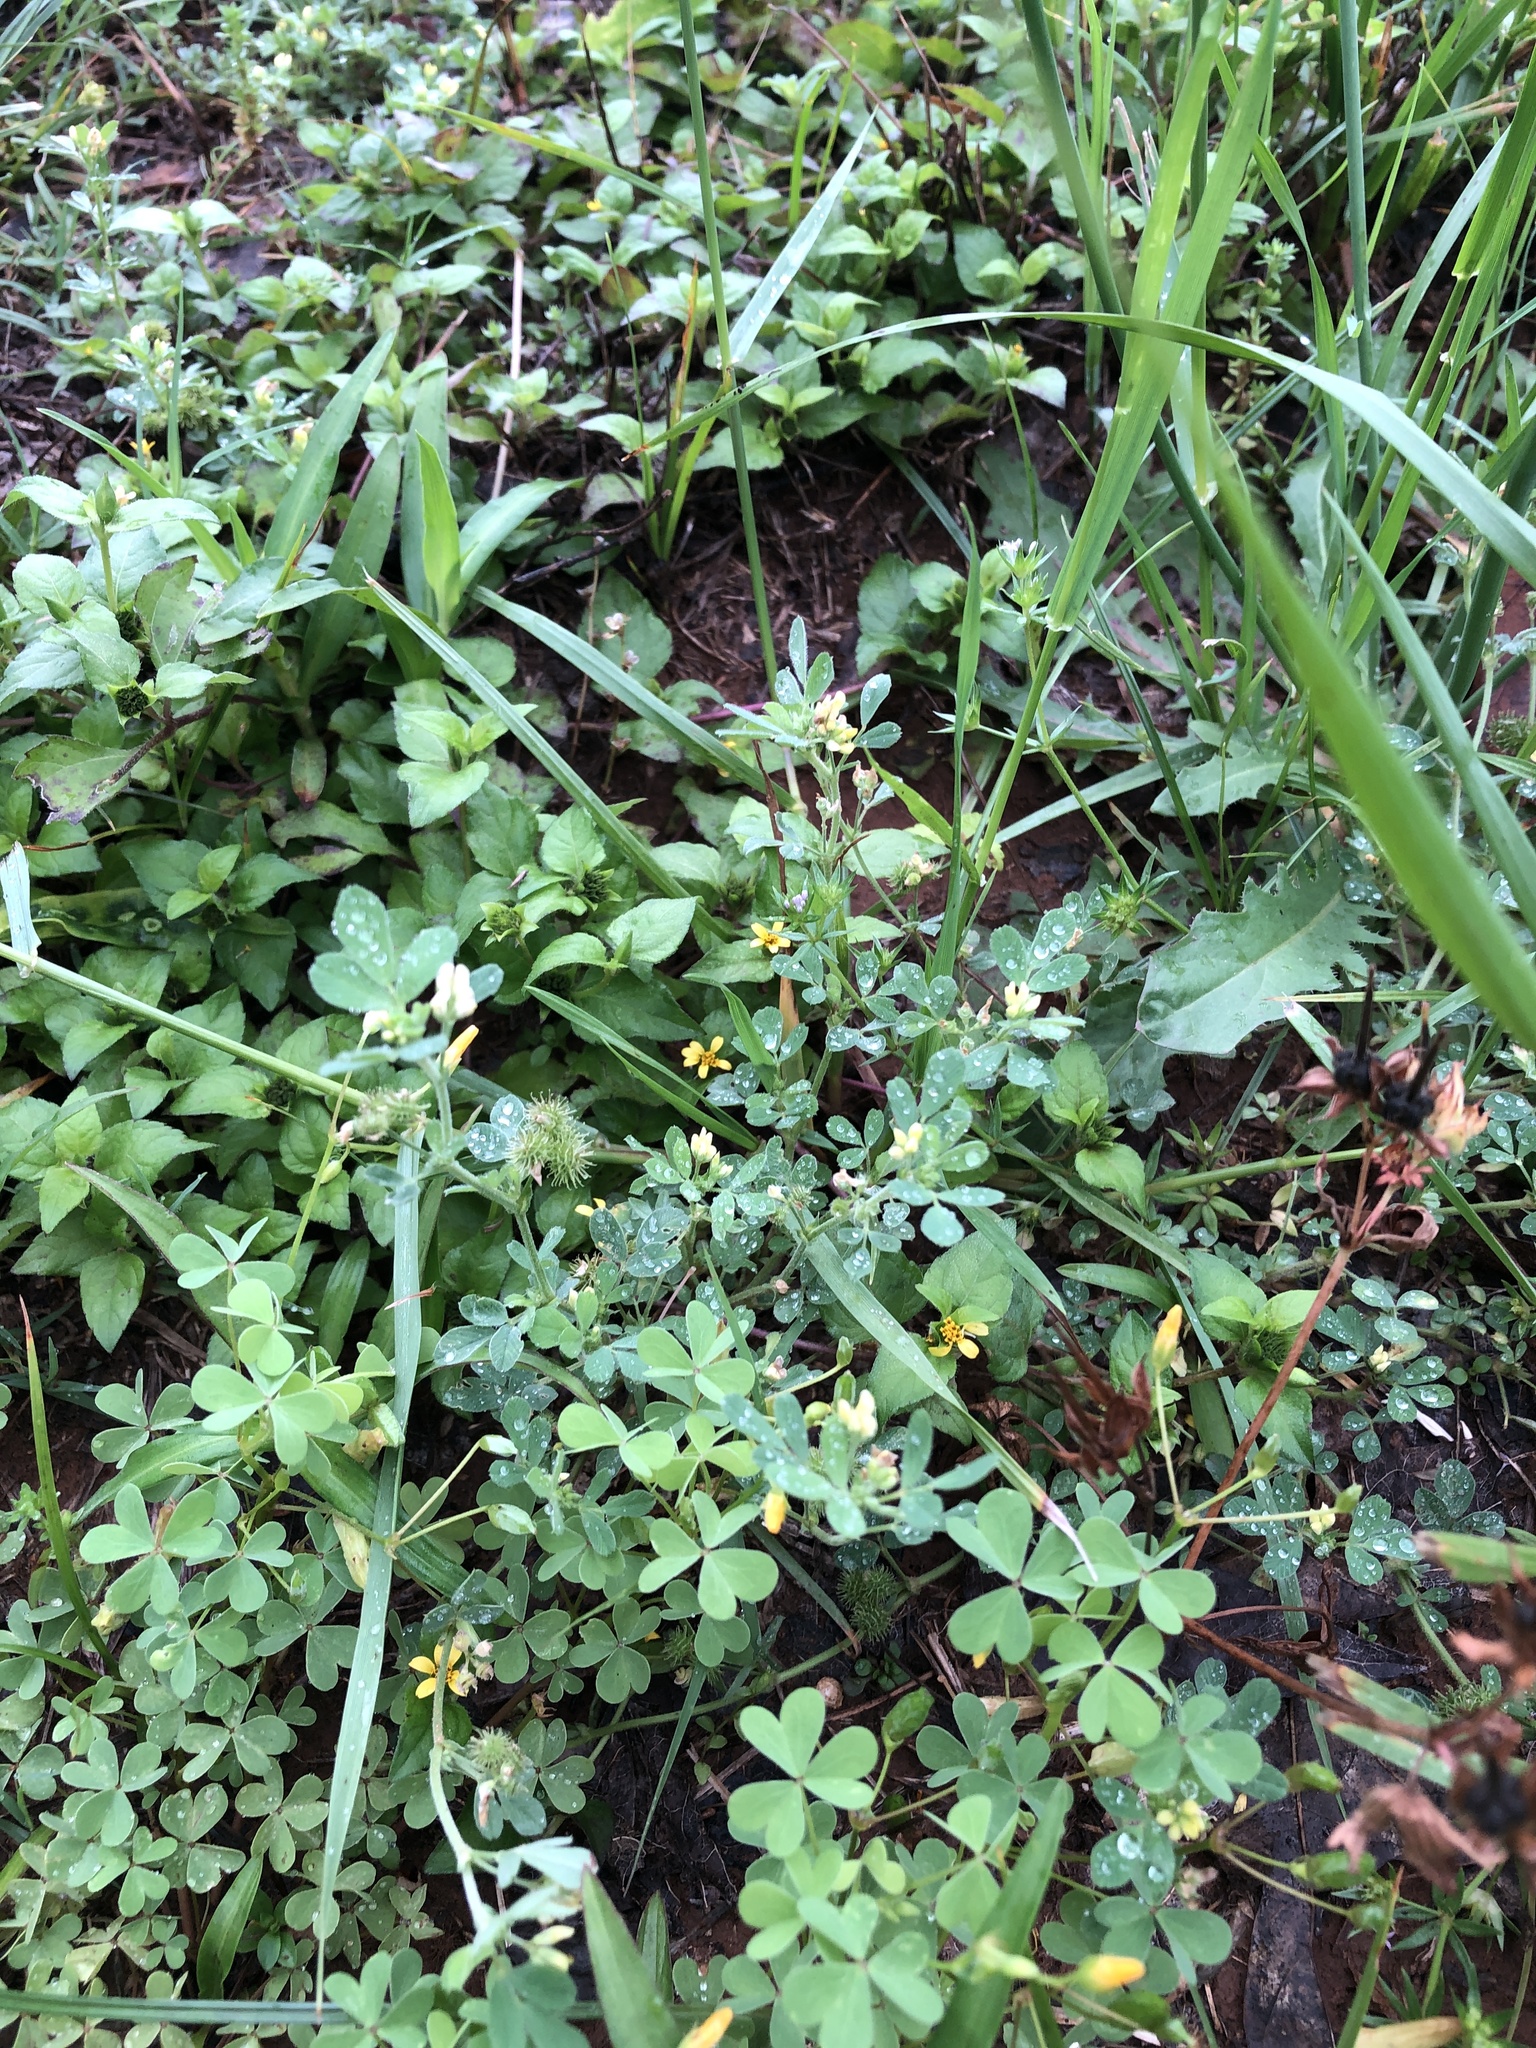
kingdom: Plantae
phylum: Tracheophyta
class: Magnoliopsida
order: Fabales
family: Fabaceae
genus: Medicago
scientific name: Medicago minima
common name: Little bur-clover
